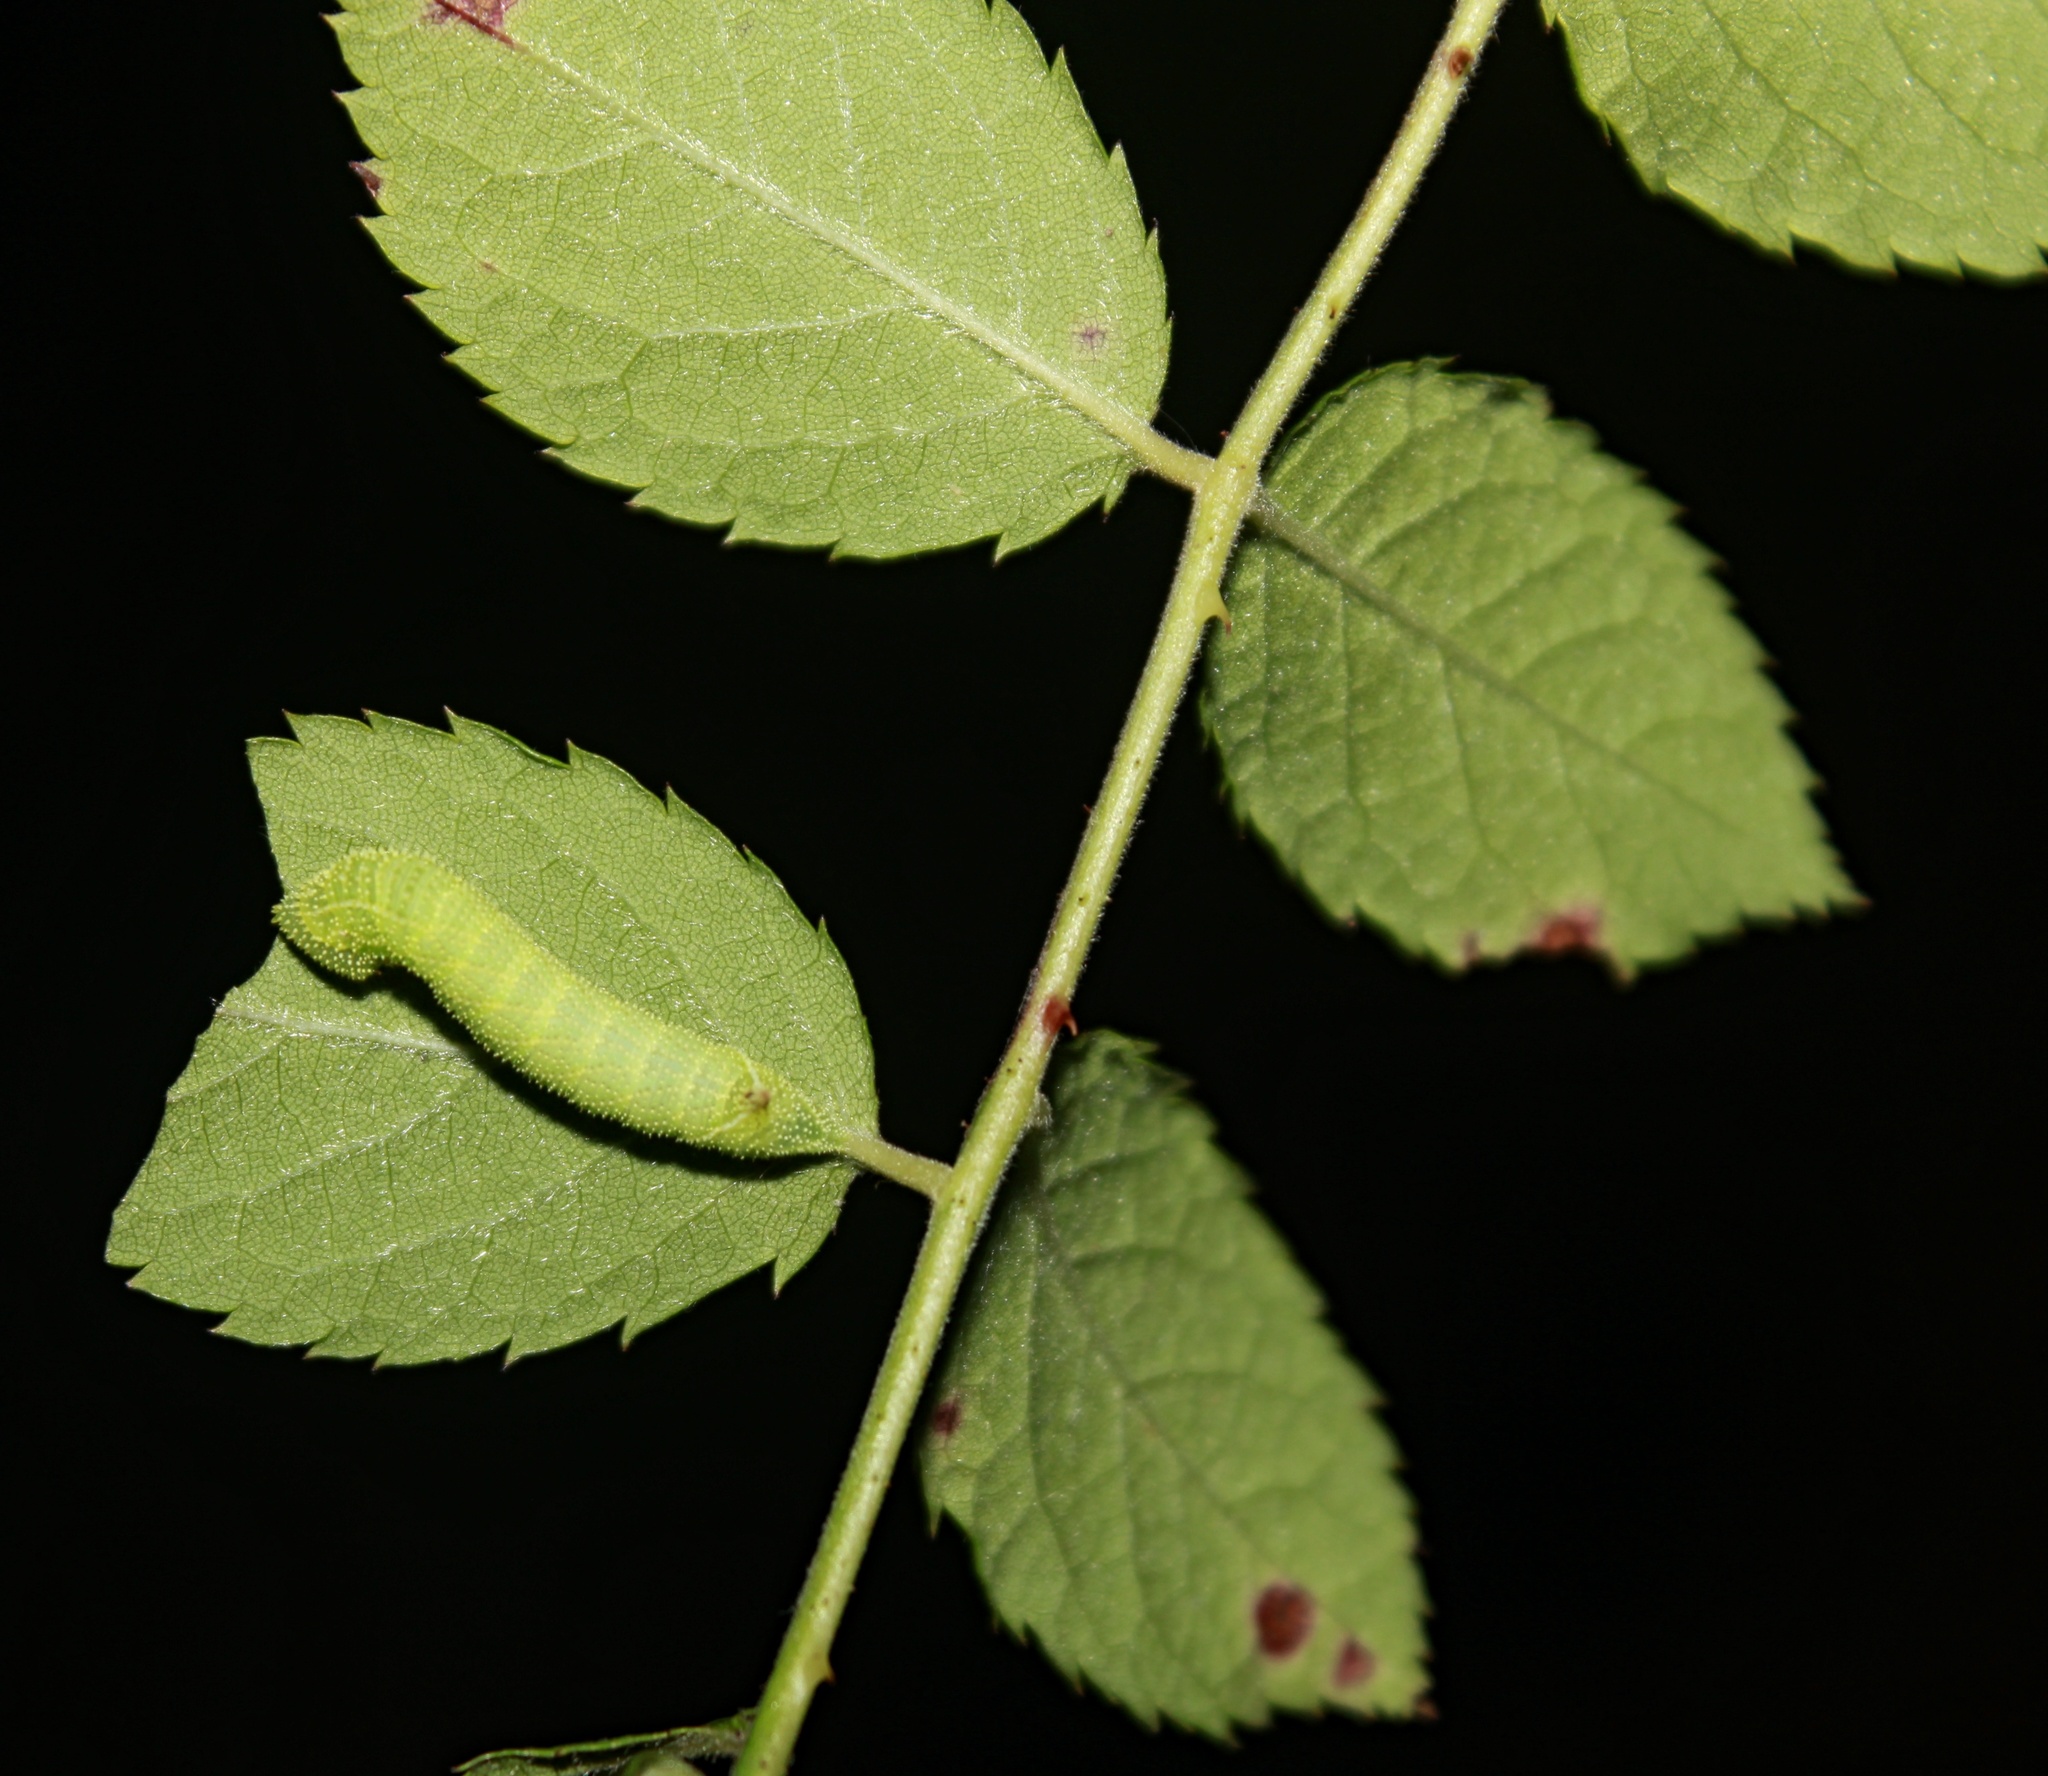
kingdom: Animalia
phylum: Arthropoda
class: Insecta
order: Lepidoptera
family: Sphingidae
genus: Paonias
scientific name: Paonias excaecata
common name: Blind-eyed sphinx
